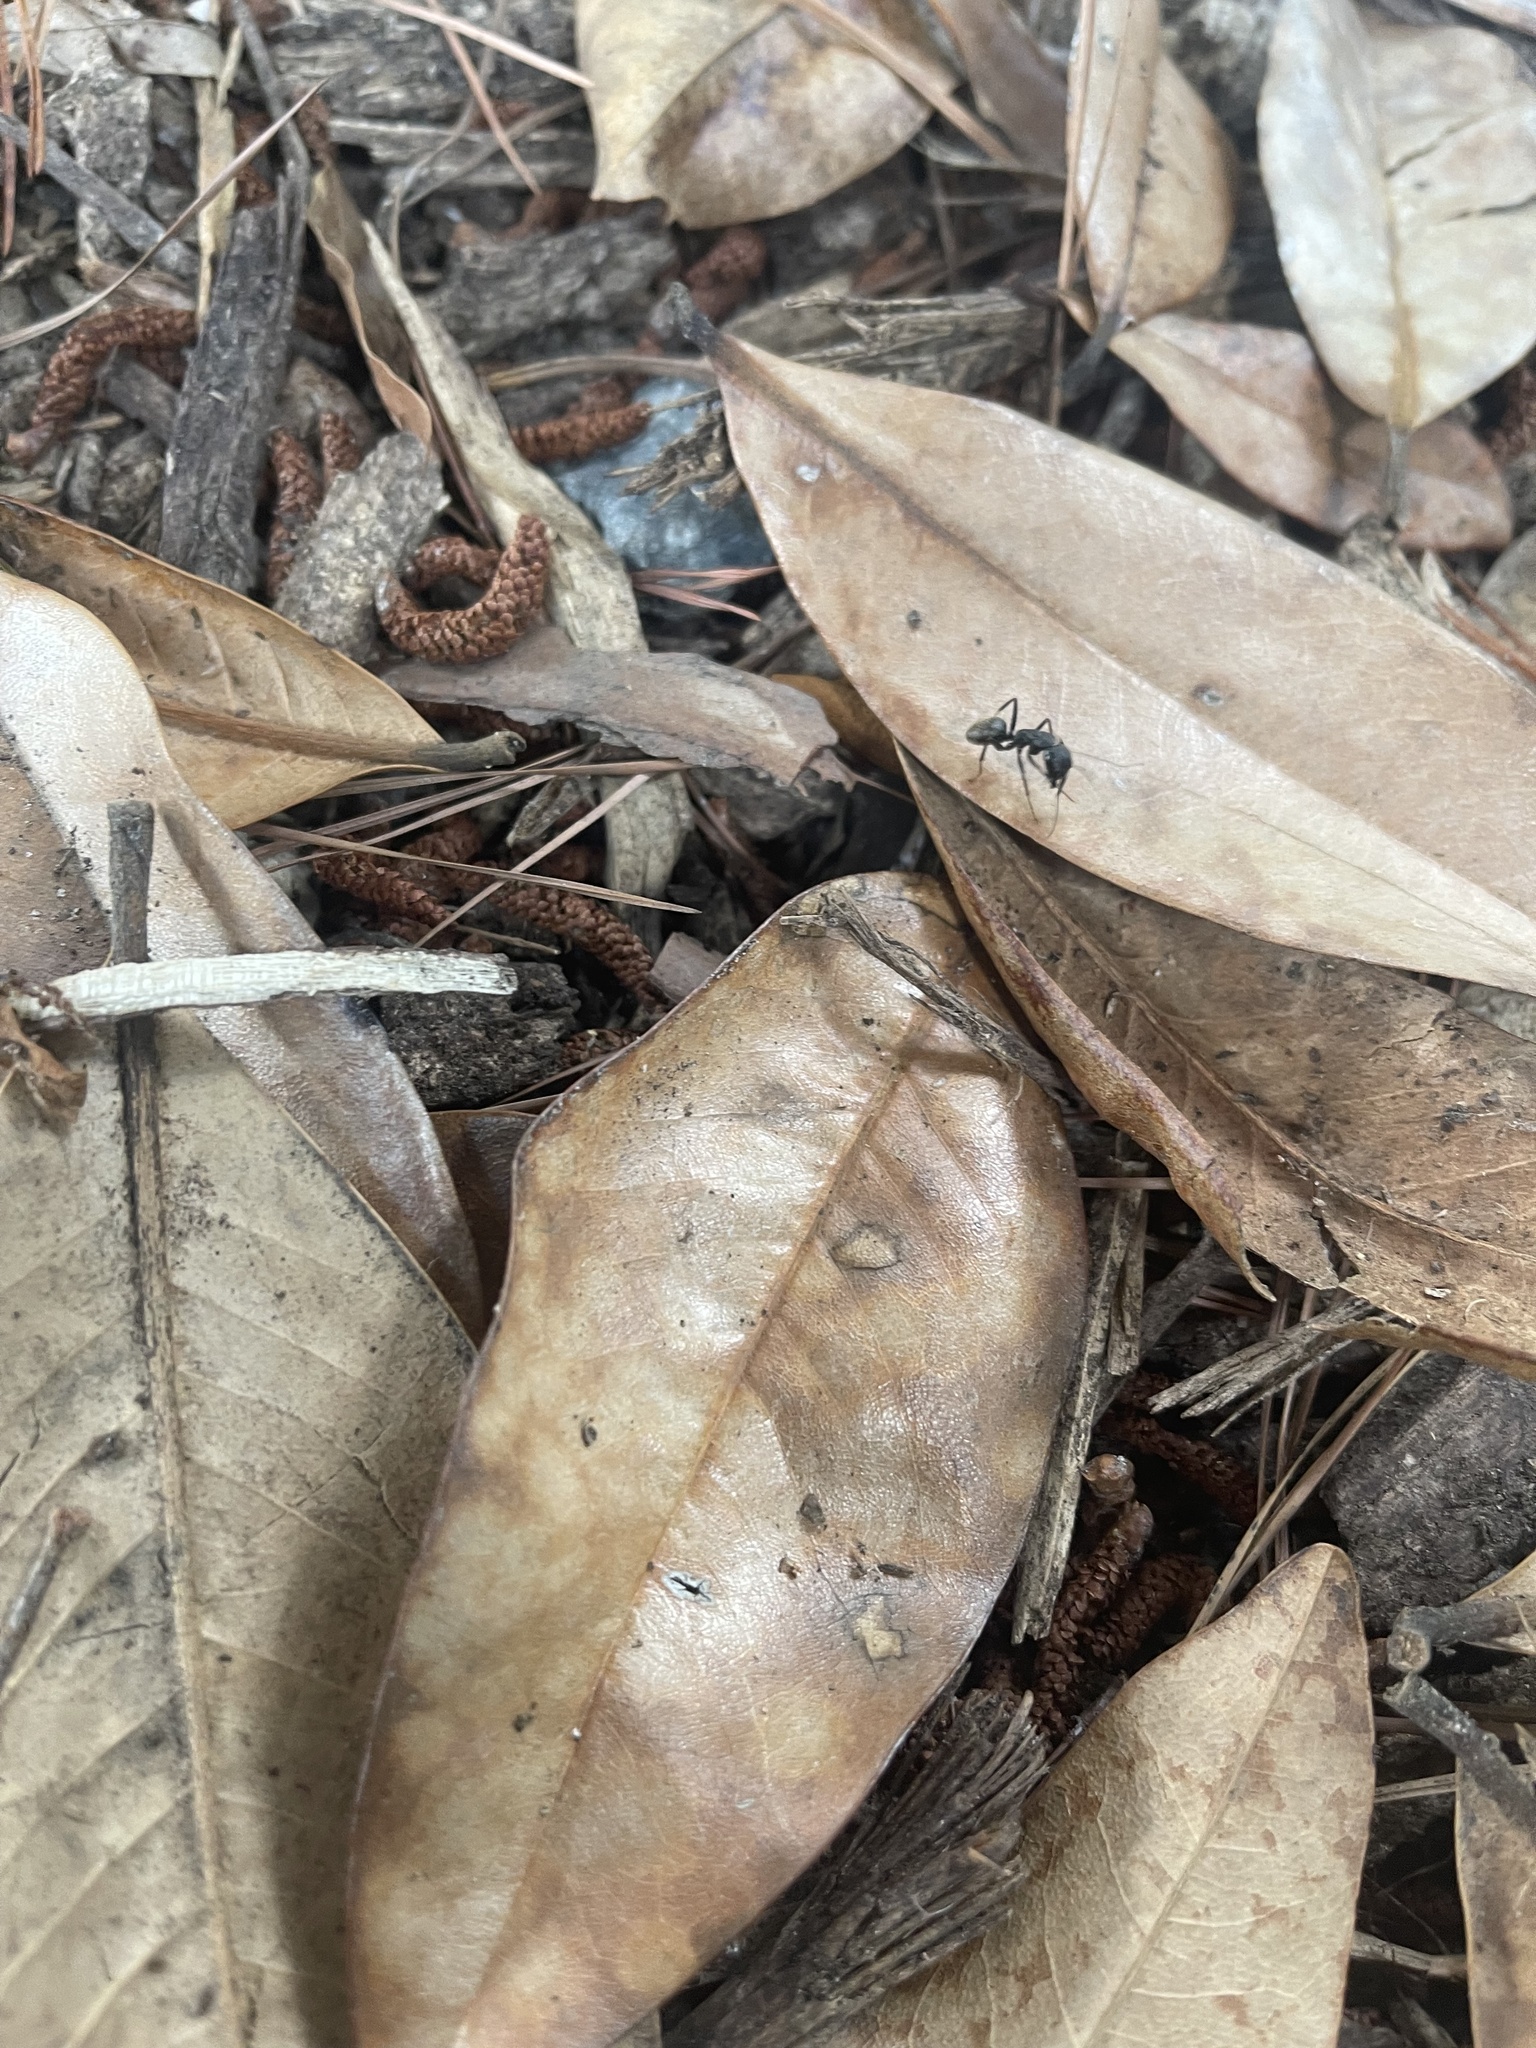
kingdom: Animalia
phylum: Arthropoda
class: Insecta
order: Hymenoptera
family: Formicidae
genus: Camponotus
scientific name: Camponotus pennsylvanicus
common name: Black carpenter ant
